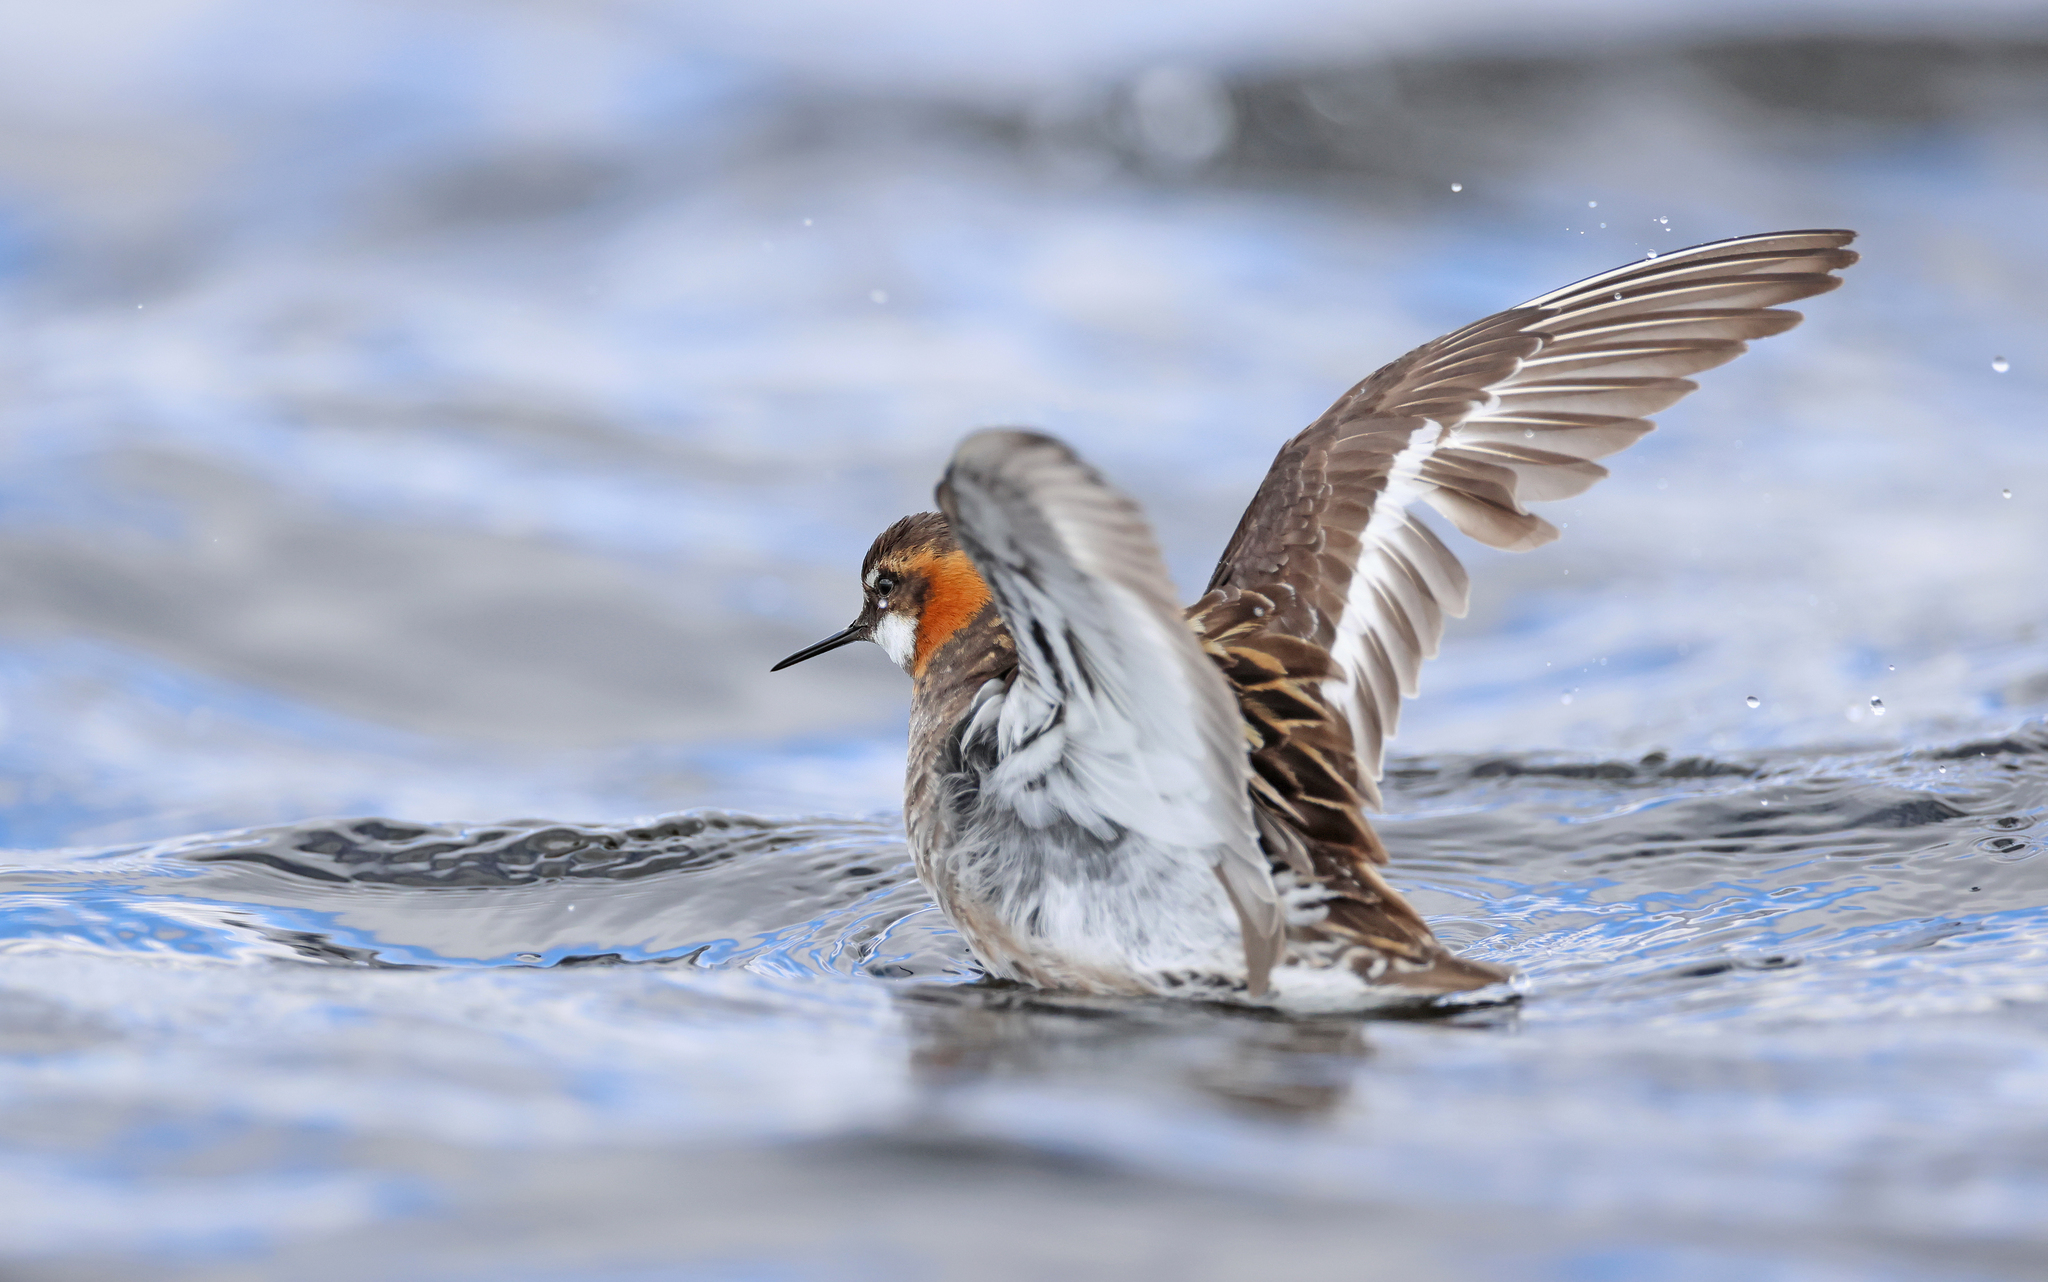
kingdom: Animalia
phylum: Chordata
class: Aves
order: Charadriiformes
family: Scolopacidae
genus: Phalaropus
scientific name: Phalaropus lobatus
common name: Red-necked phalarope
